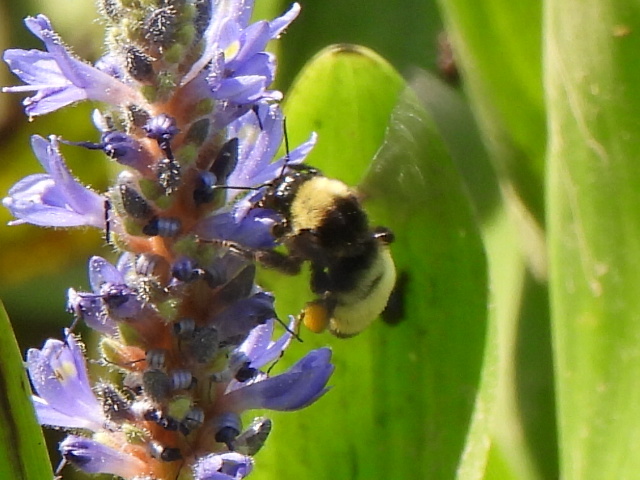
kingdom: Animalia
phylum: Arthropoda
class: Insecta
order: Hymenoptera
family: Apidae
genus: Bombus
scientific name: Bombus pensylvanicus
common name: Bumble bee
